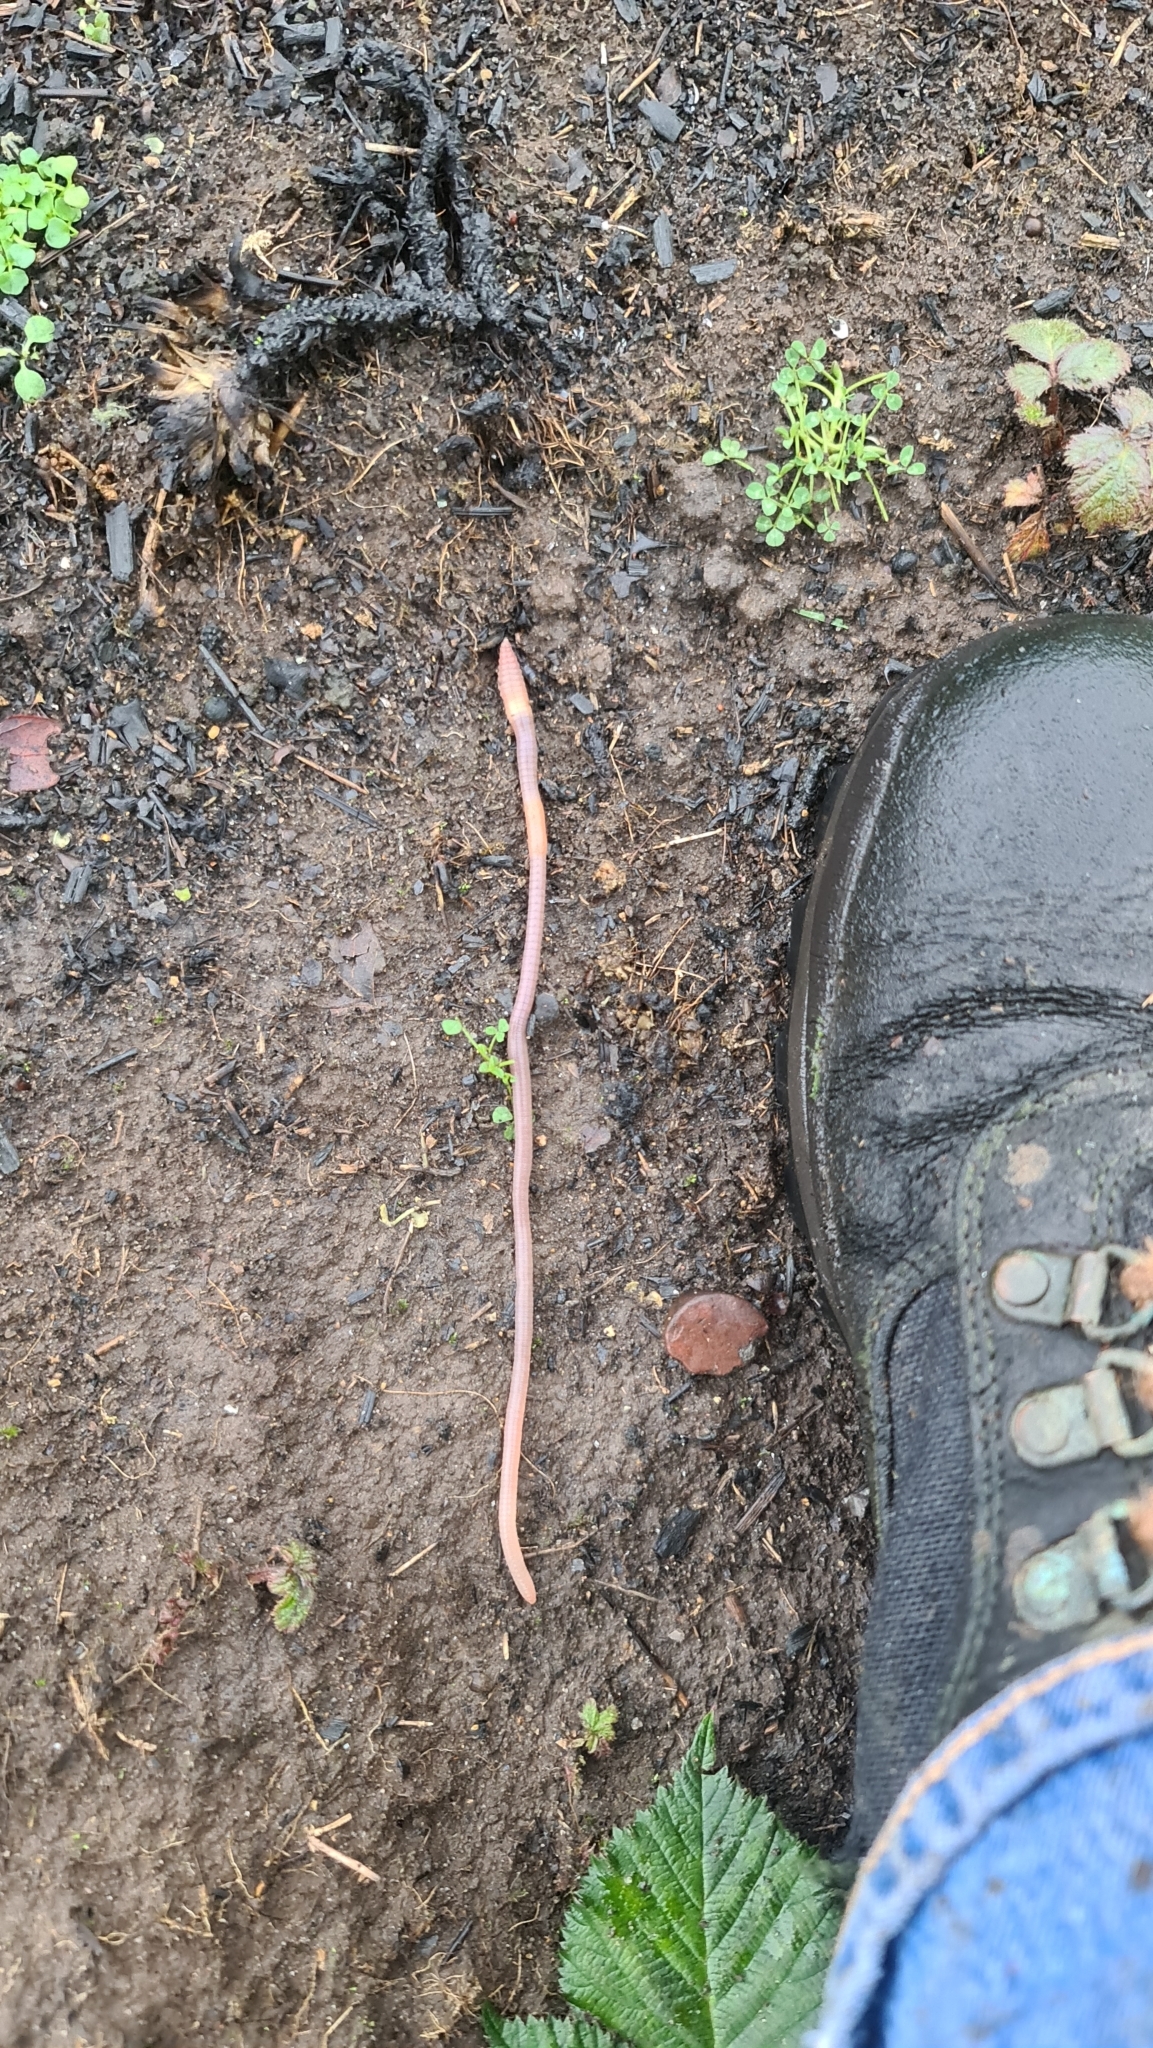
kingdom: Animalia
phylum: Annelida
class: Clitellata
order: Crassiclitellata
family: Lumbricidae
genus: Aporrectodea
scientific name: Aporrectodea caliginosa
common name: Grey worm
